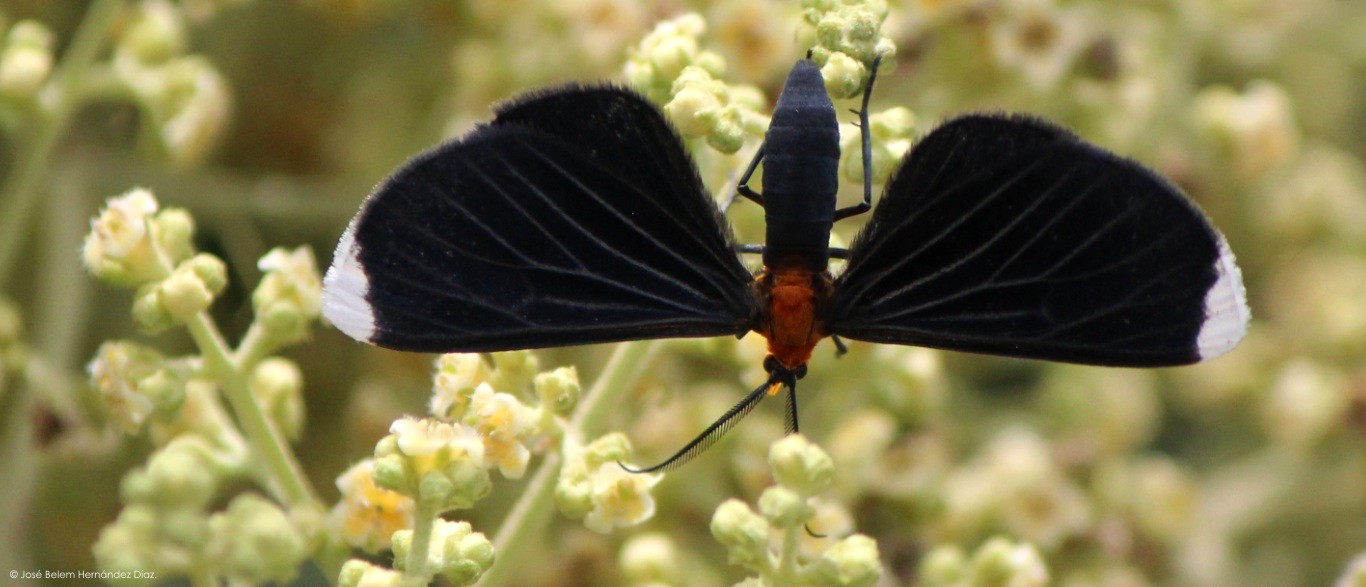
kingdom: Animalia
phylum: Arthropoda
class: Insecta
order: Lepidoptera
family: Geometridae
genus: Melanchroia
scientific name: Melanchroia chephise
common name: White-tipped black
